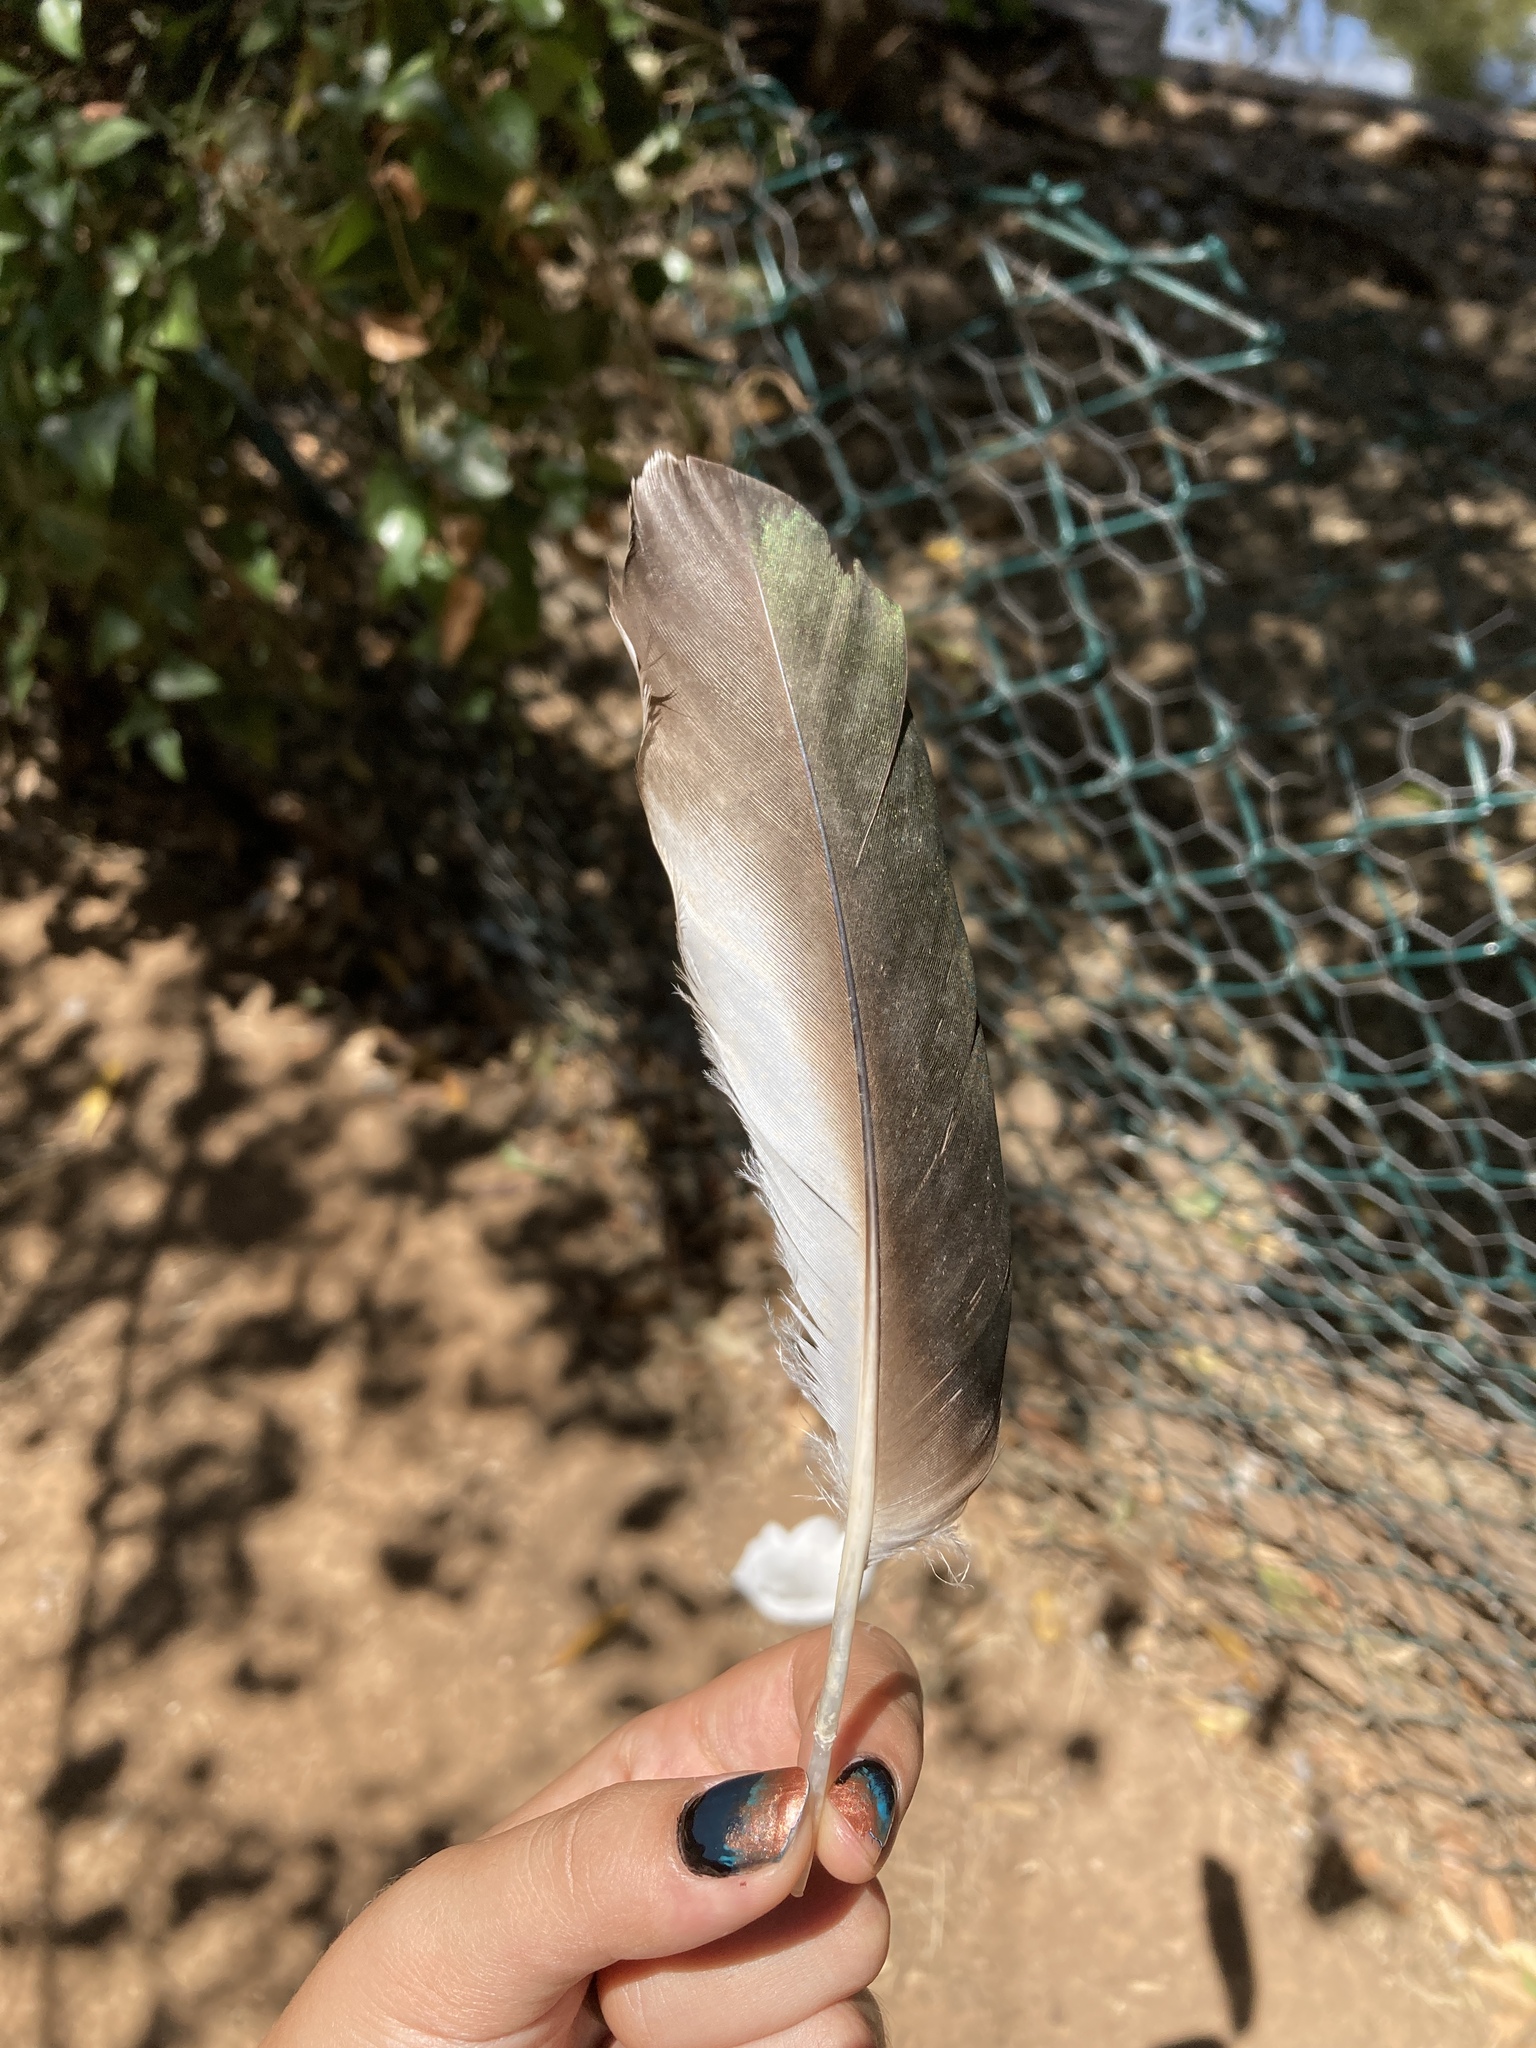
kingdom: Animalia
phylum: Chordata
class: Aves
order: Anseriformes
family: Anatidae
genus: Tadorna
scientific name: Tadorna ferruginea
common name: Ruddy shelduck
